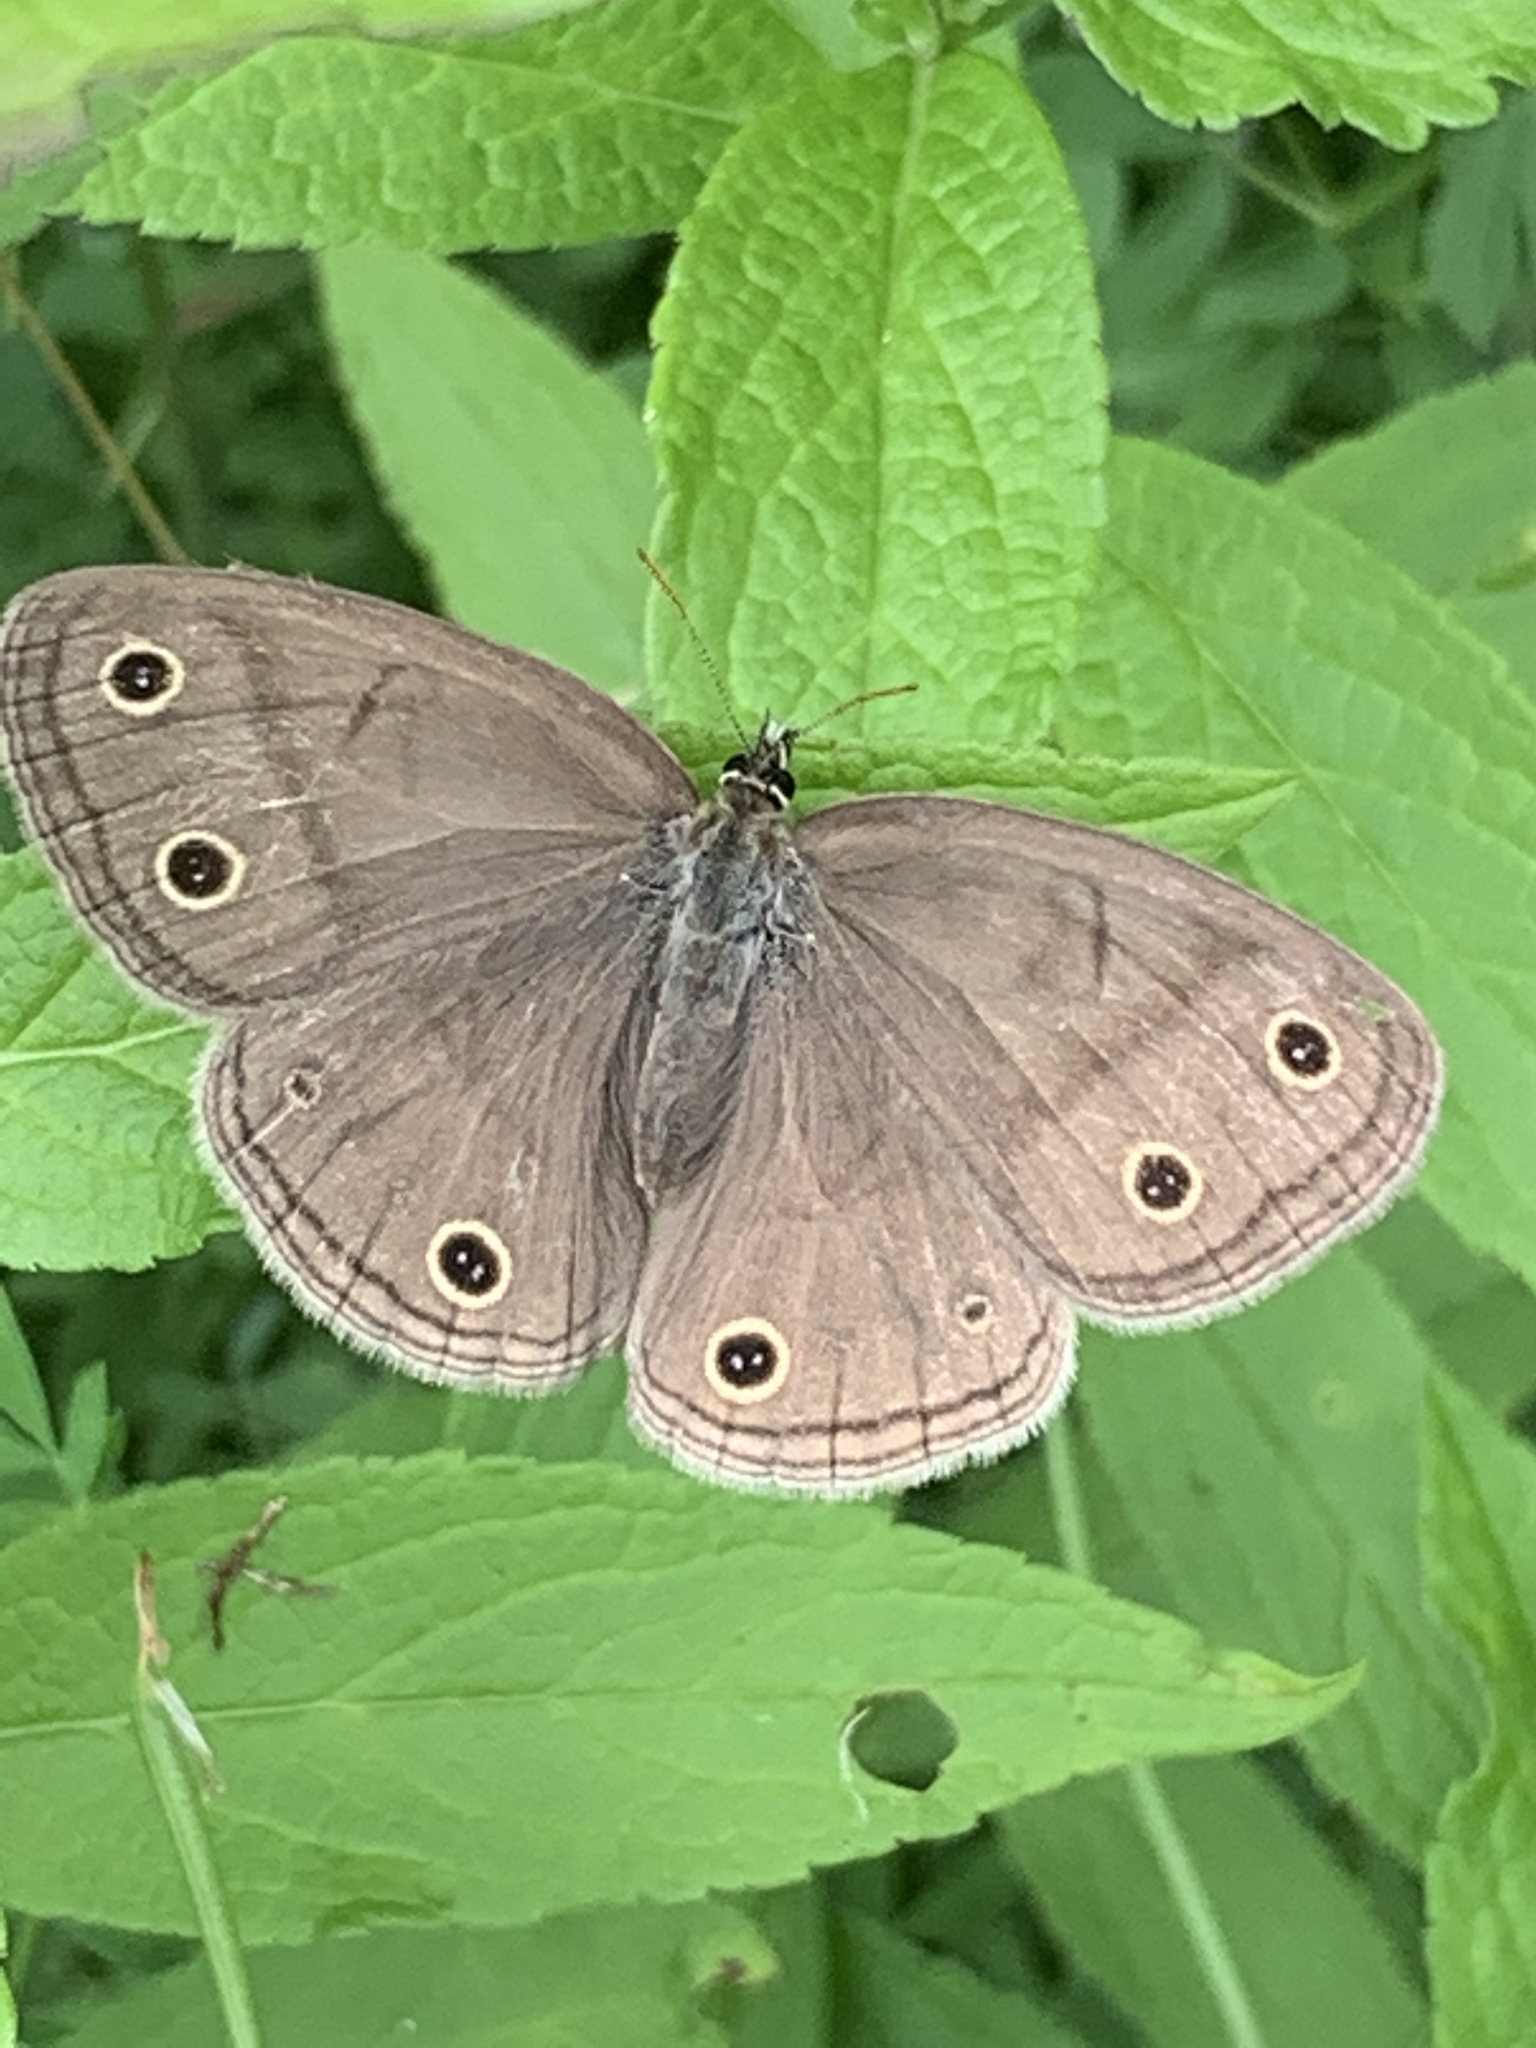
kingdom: Animalia
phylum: Arthropoda
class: Insecta
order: Lepidoptera
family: Nymphalidae
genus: Euptychia
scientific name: Euptychia cymela
